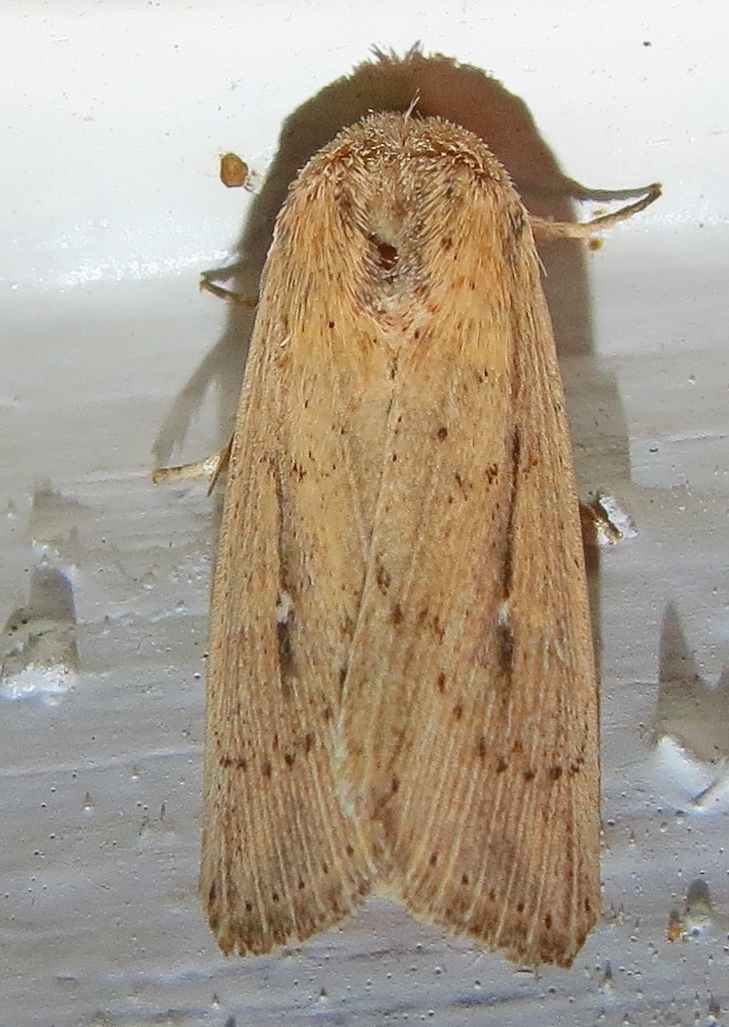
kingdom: Animalia
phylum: Arthropoda
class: Insecta
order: Lepidoptera
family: Noctuidae
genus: Leucania
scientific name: Leucania incognita
